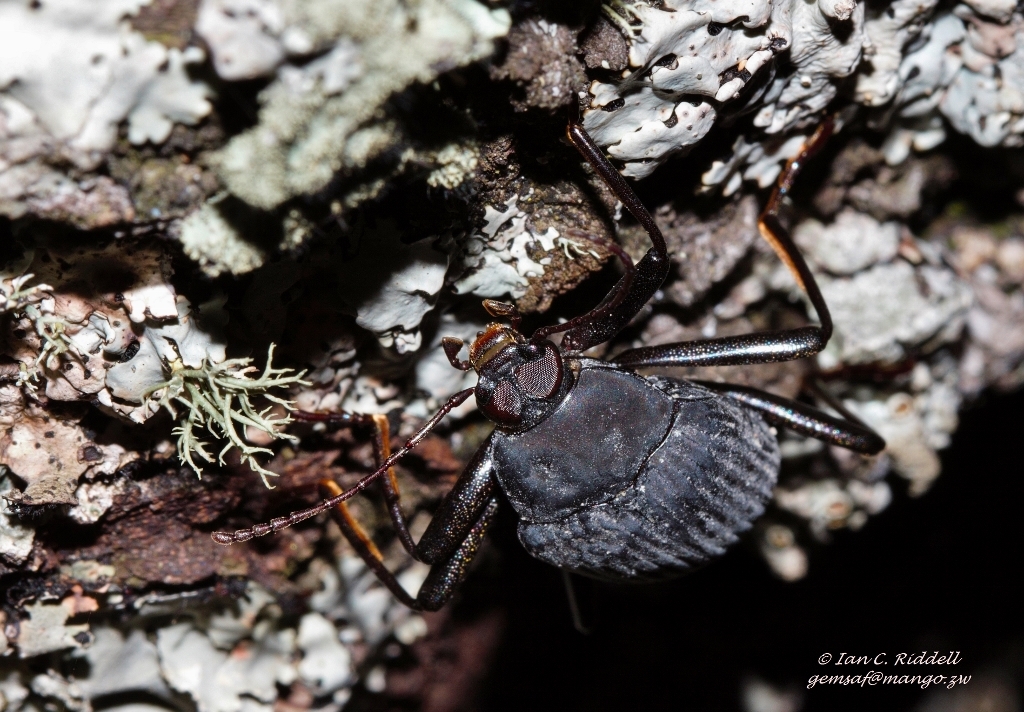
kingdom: Animalia
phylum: Arthropoda
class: Insecta
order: Coleoptera
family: Tenebrionidae
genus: Eupezus
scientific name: Eupezus
